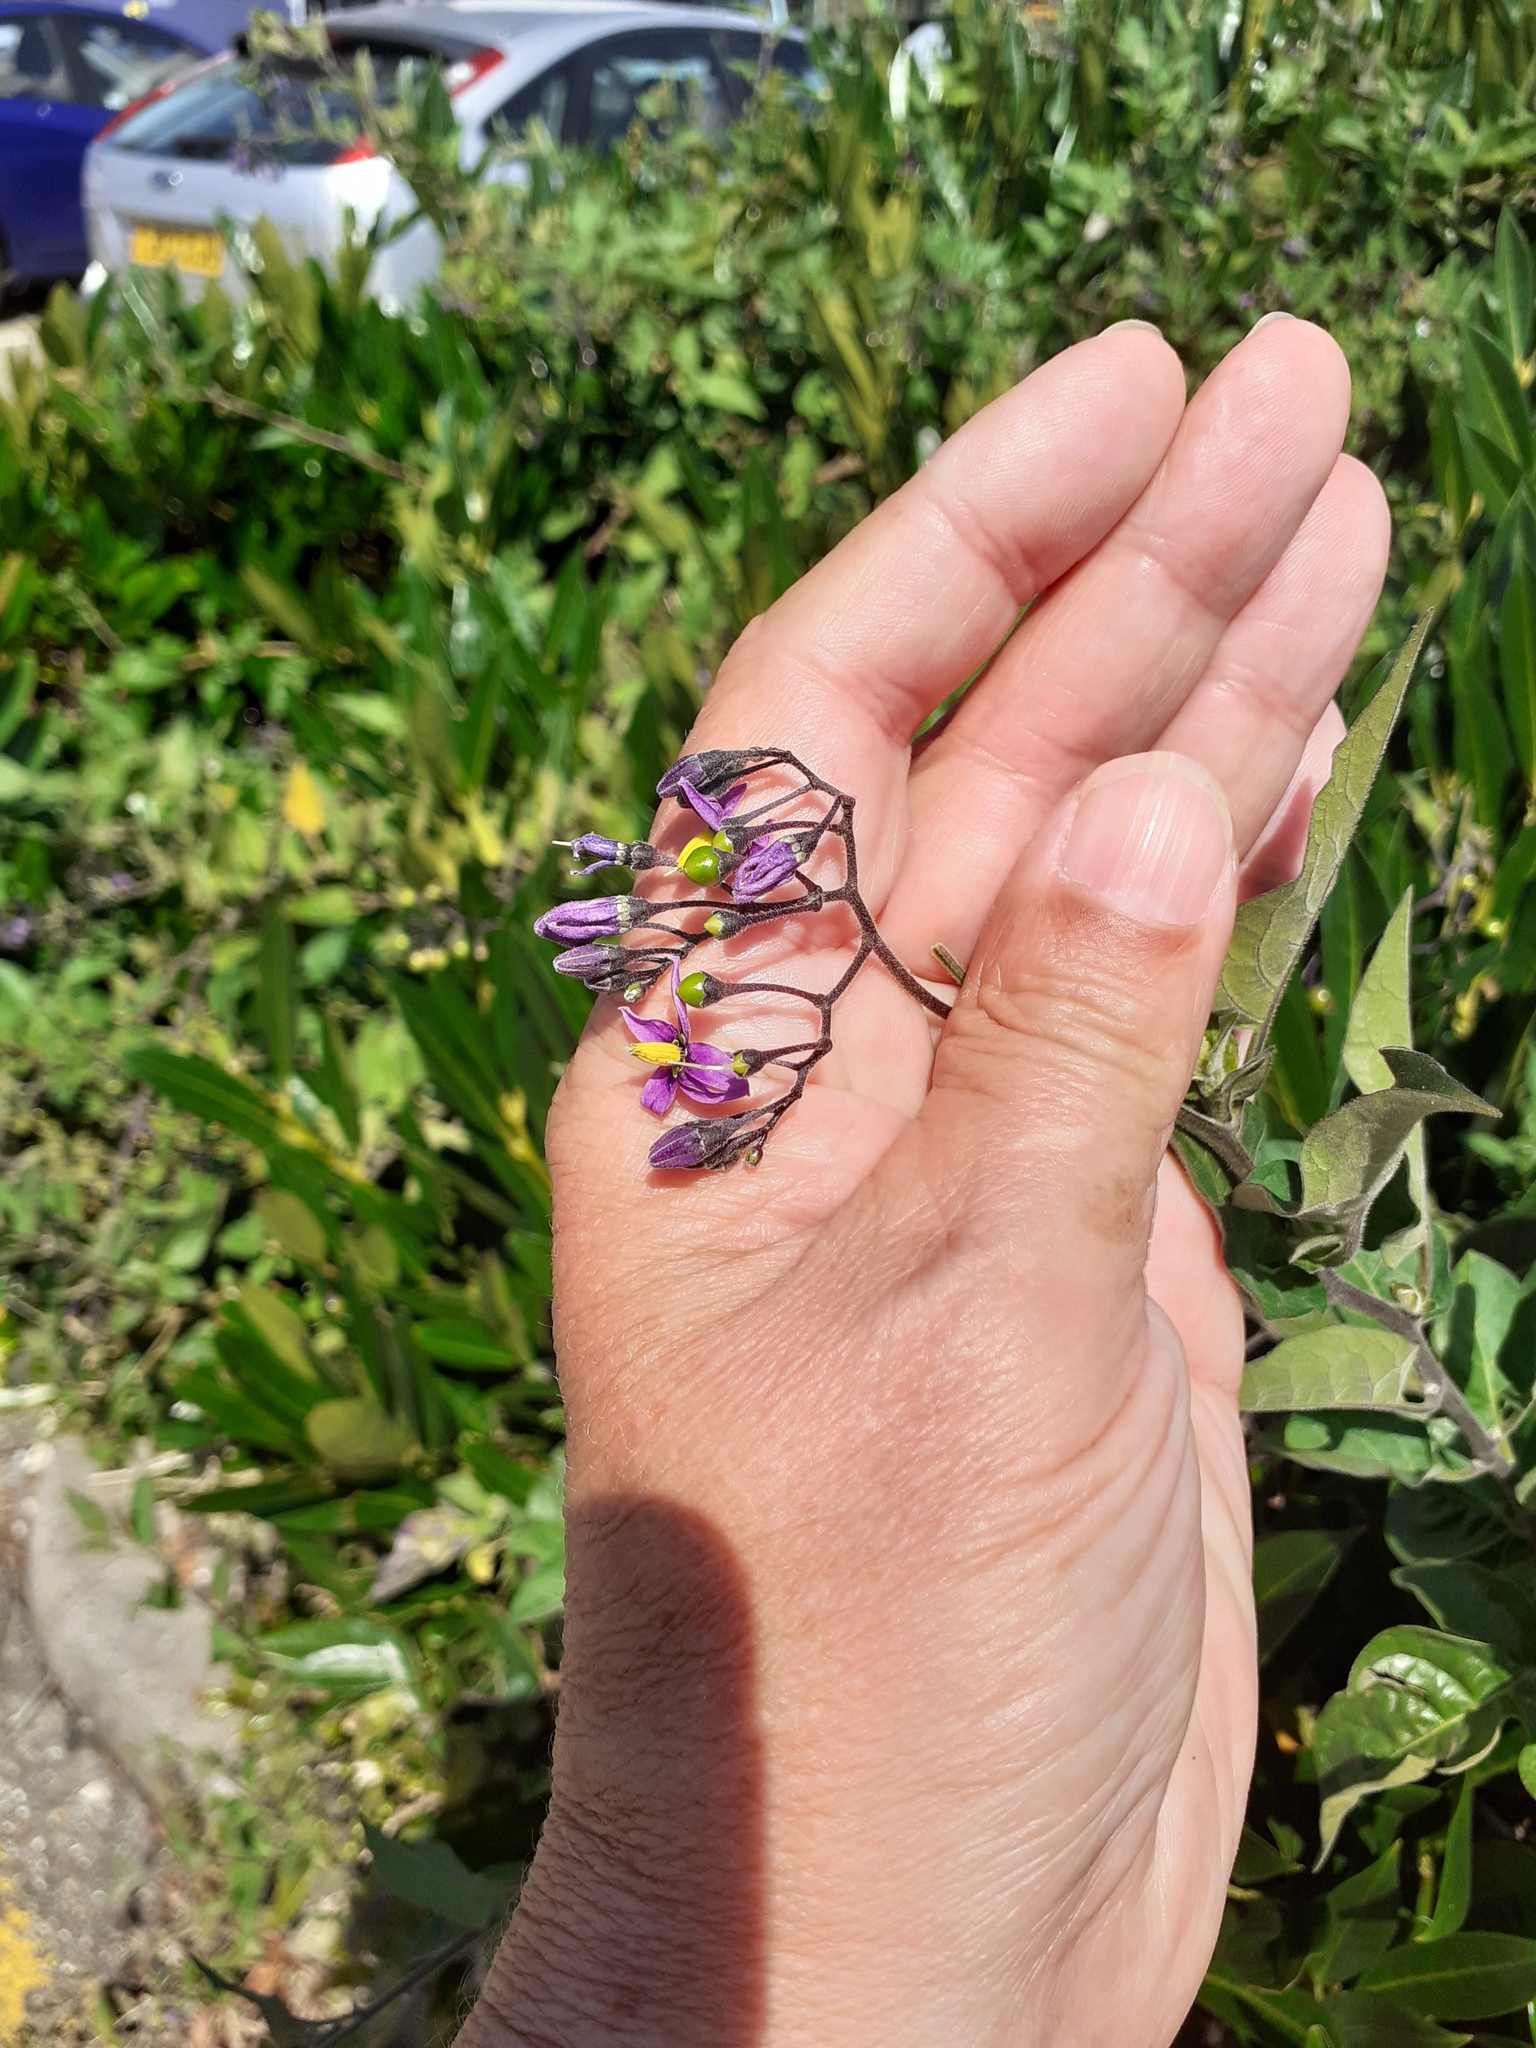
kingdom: Plantae
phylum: Tracheophyta
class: Magnoliopsida
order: Solanales
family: Solanaceae
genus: Solanum
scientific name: Solanum dulcamara
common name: Climbing nightshade
